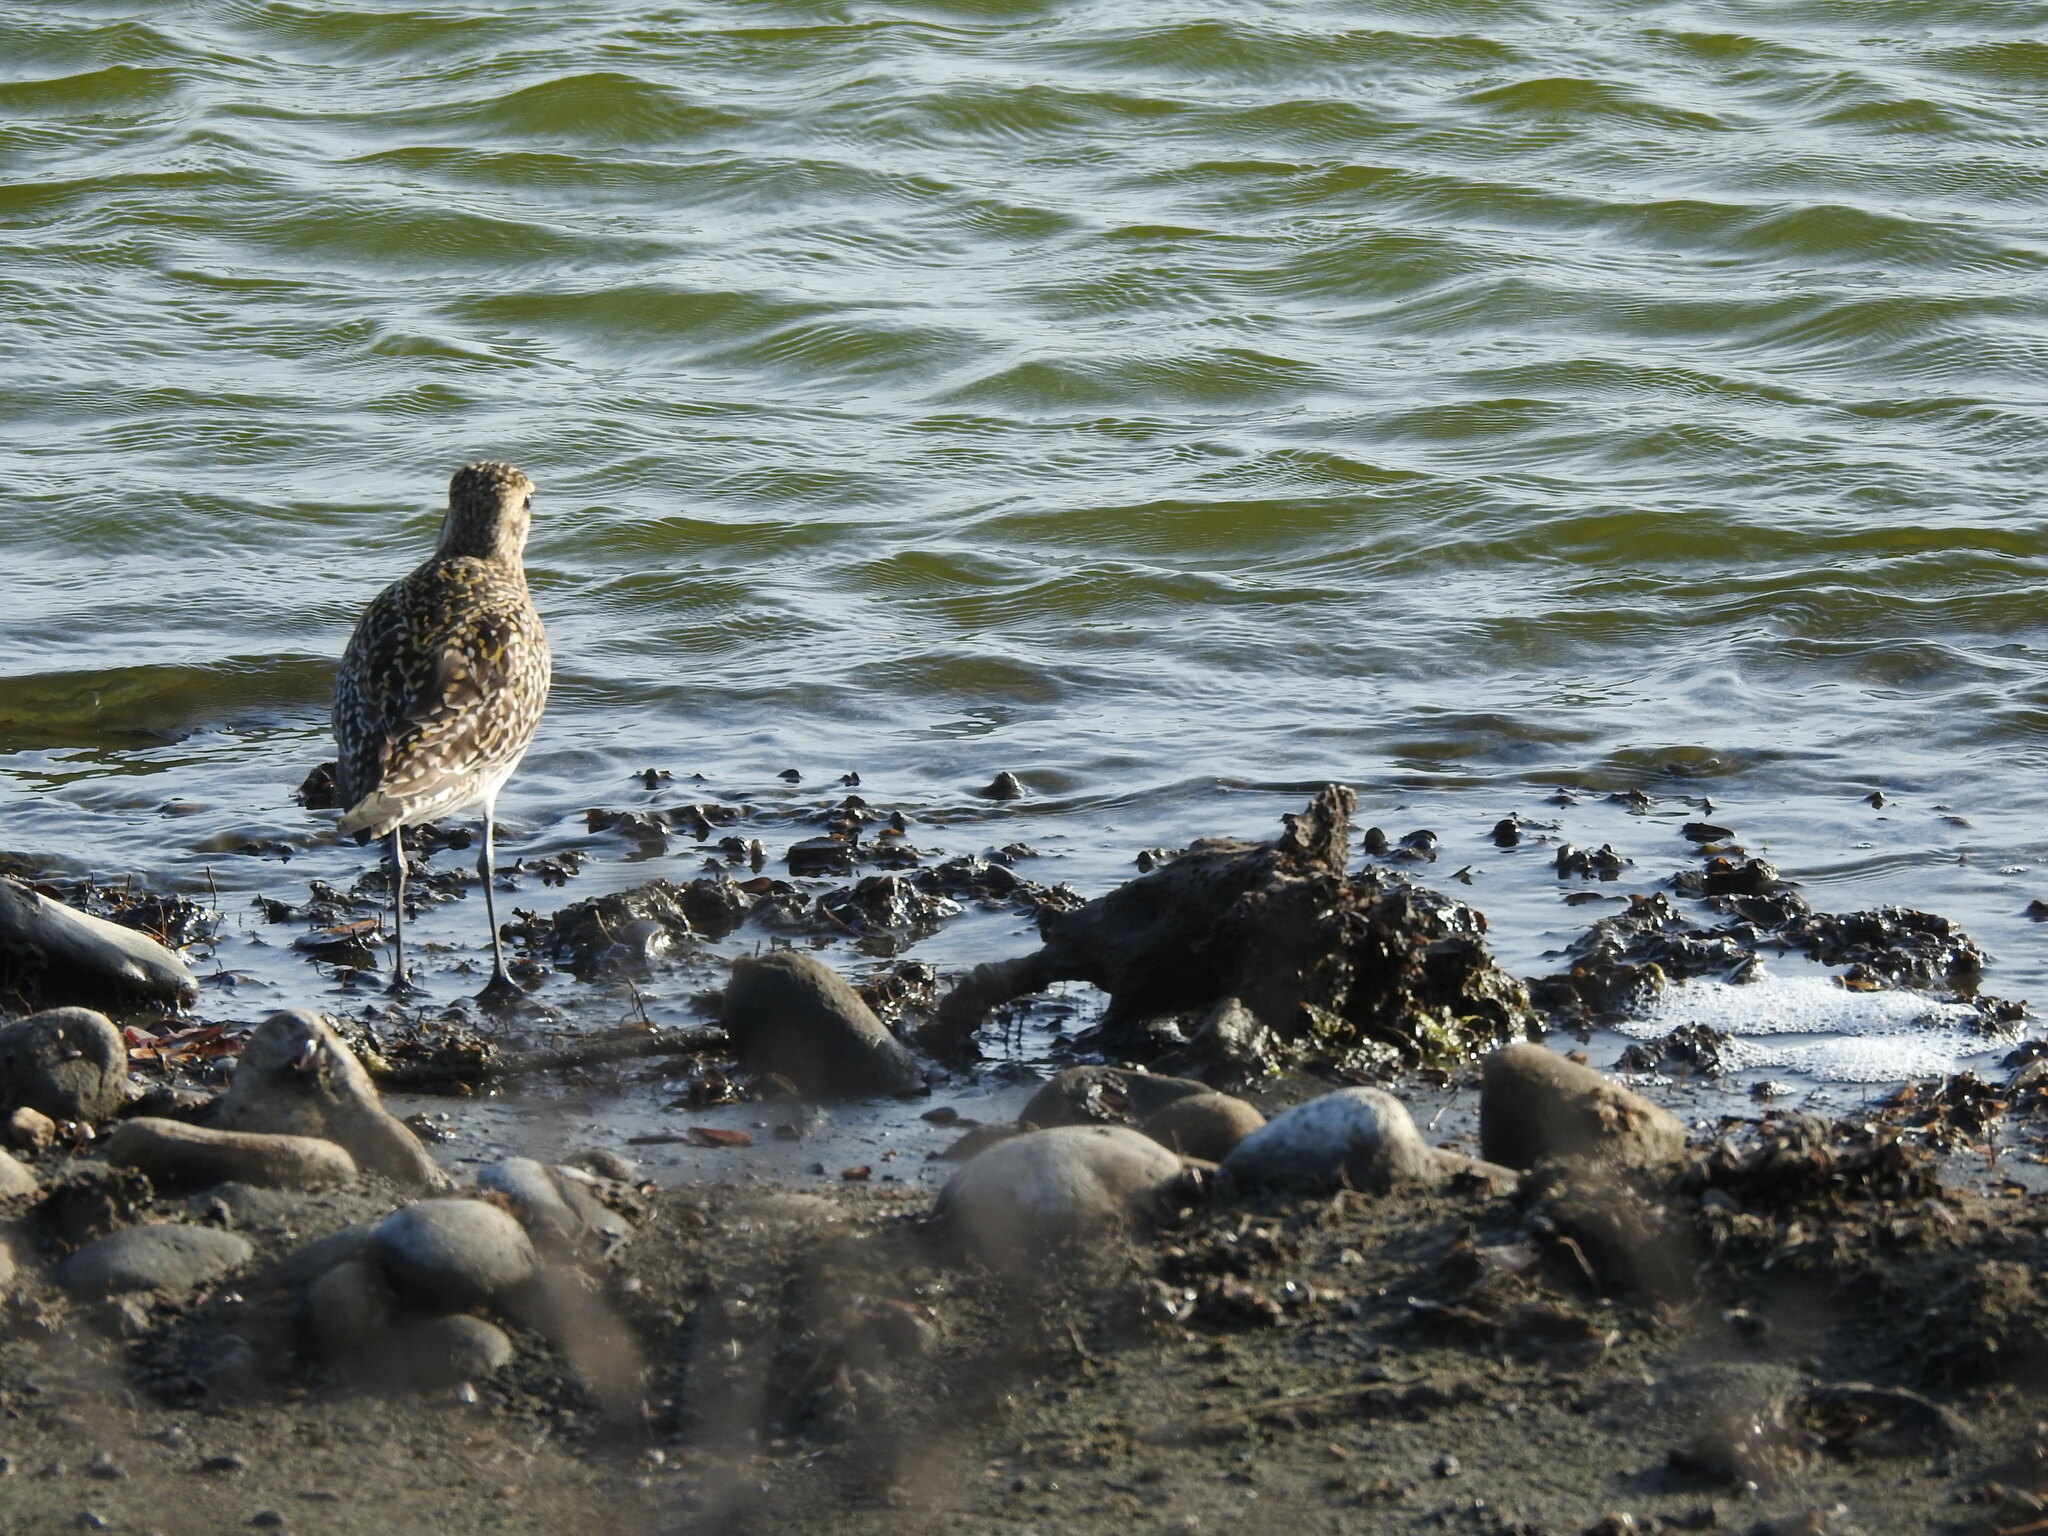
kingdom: Animalia
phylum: Chordata
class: Aves
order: Charadriiformes
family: Charadriidae
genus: Pluvialis
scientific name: Pluvialis fulva
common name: Pacific golden plover
